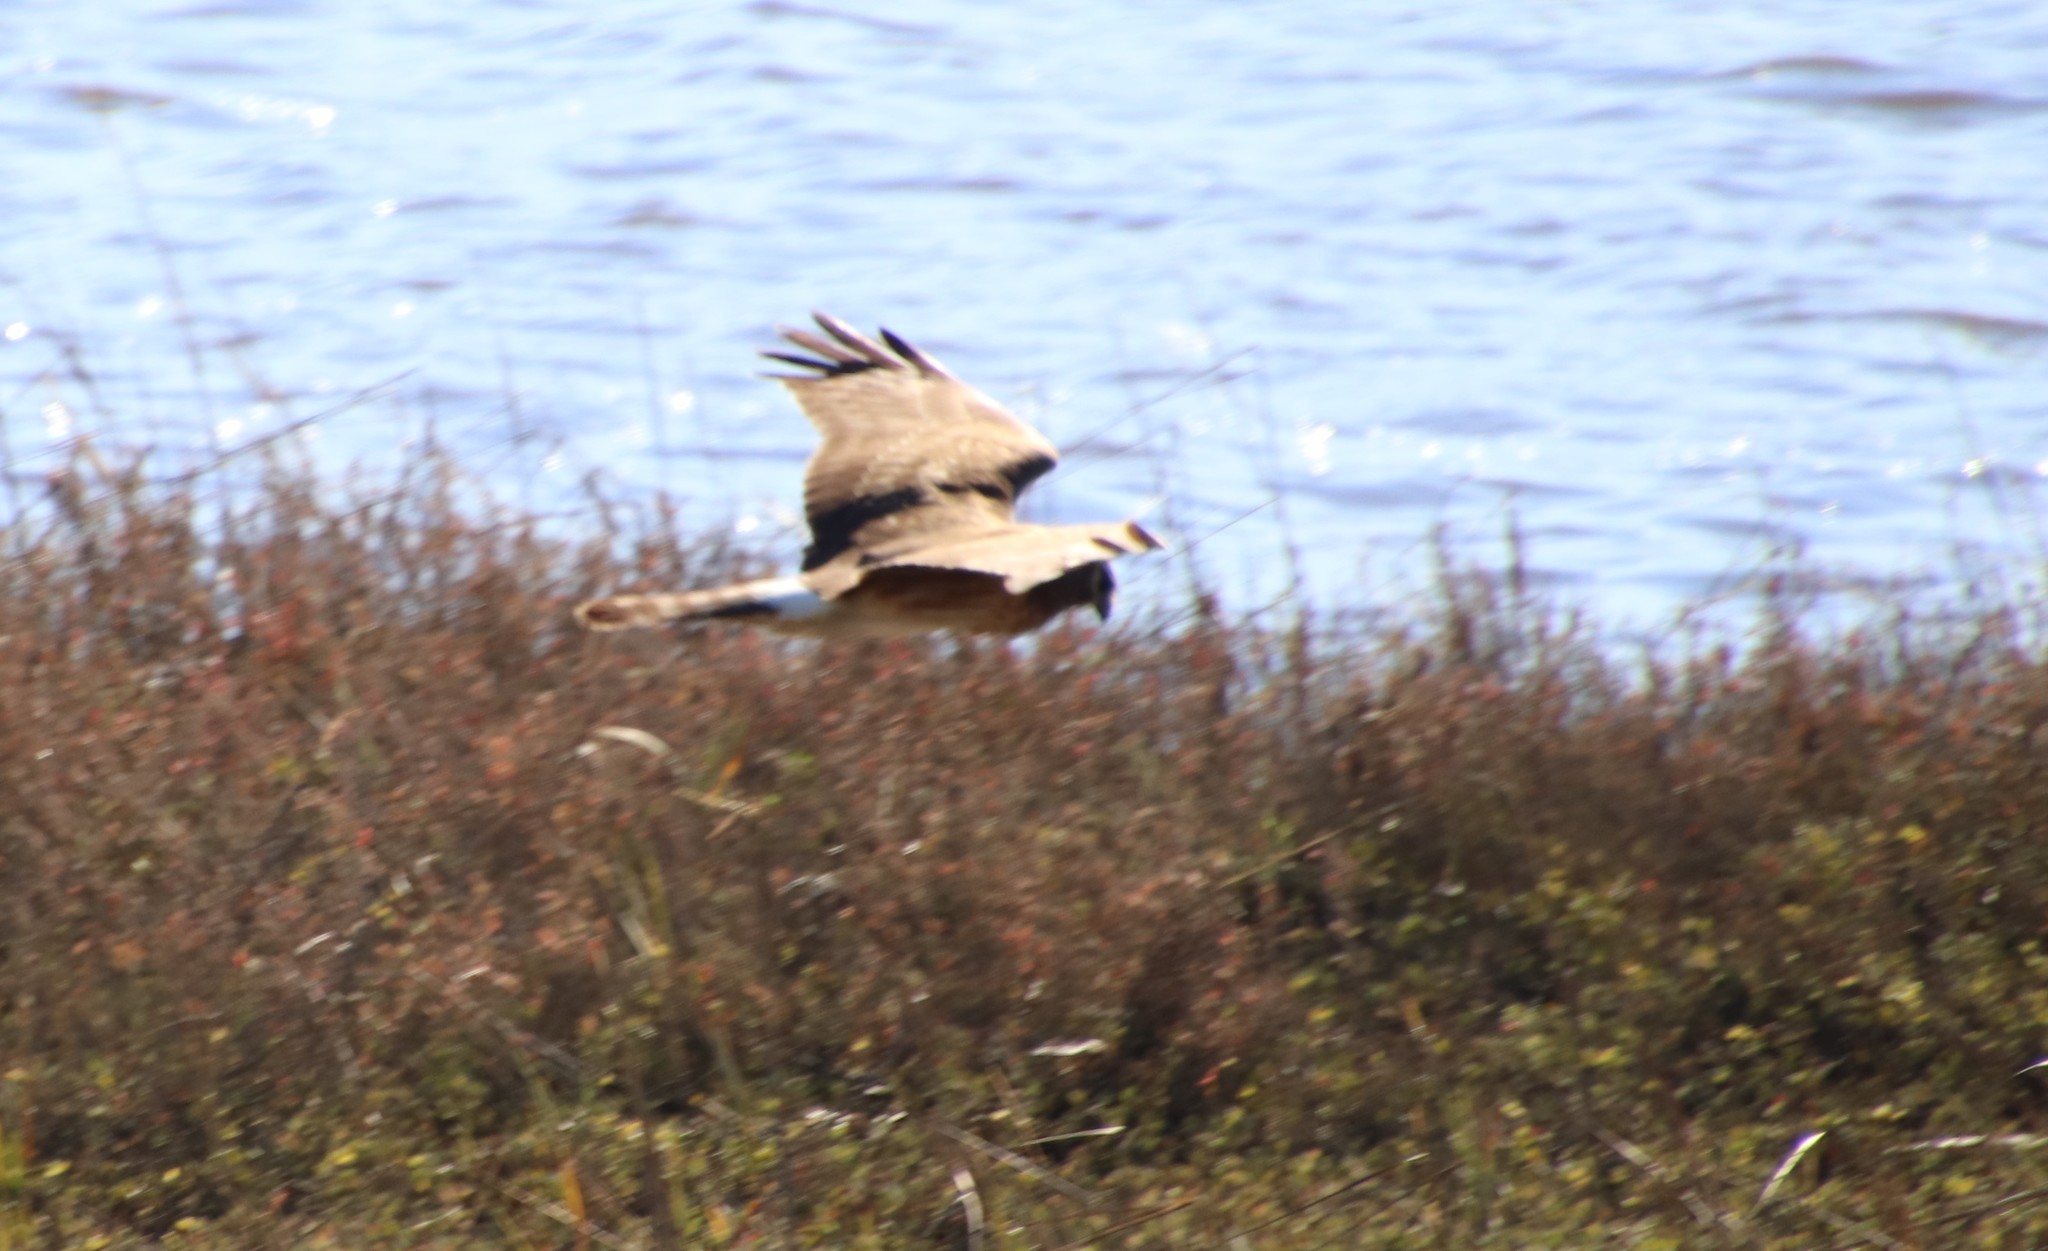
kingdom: Animalia
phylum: Chordata
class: Aves
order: Accipitriformes
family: Accipitridae
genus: Circus
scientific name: Circus cyaneus
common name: Hen harrier
